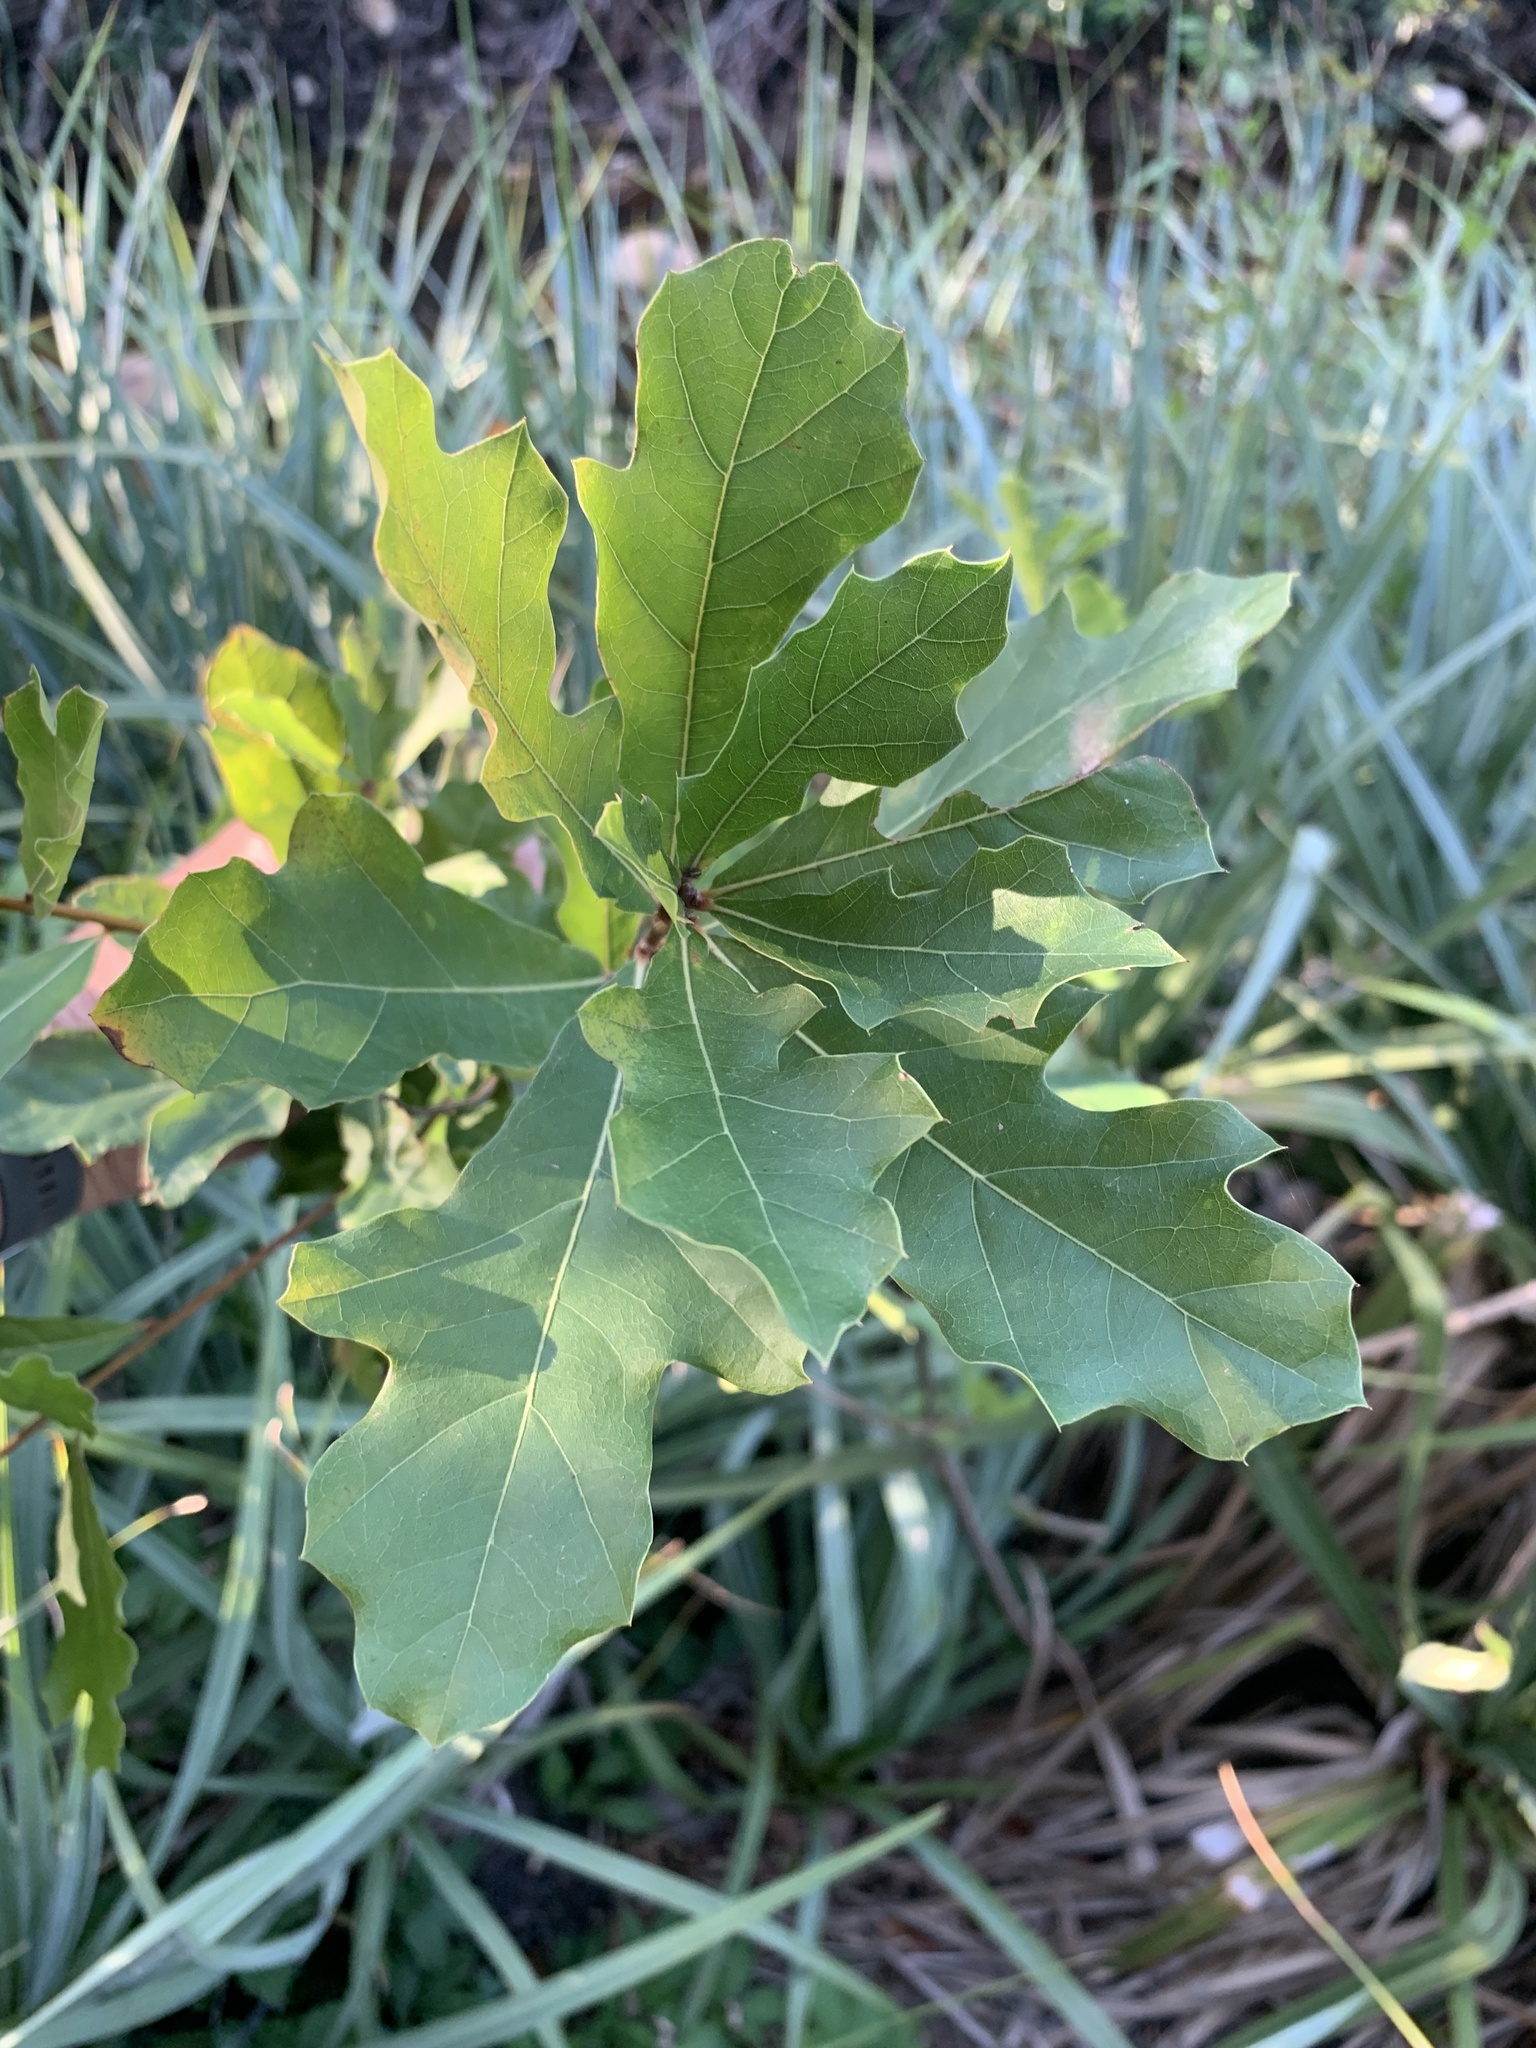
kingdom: Plantae
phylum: Tracheophyta
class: Magnoliopsida
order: Fagales
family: Fagaceae
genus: Quercus
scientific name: Quercus nigra
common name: Water oak
